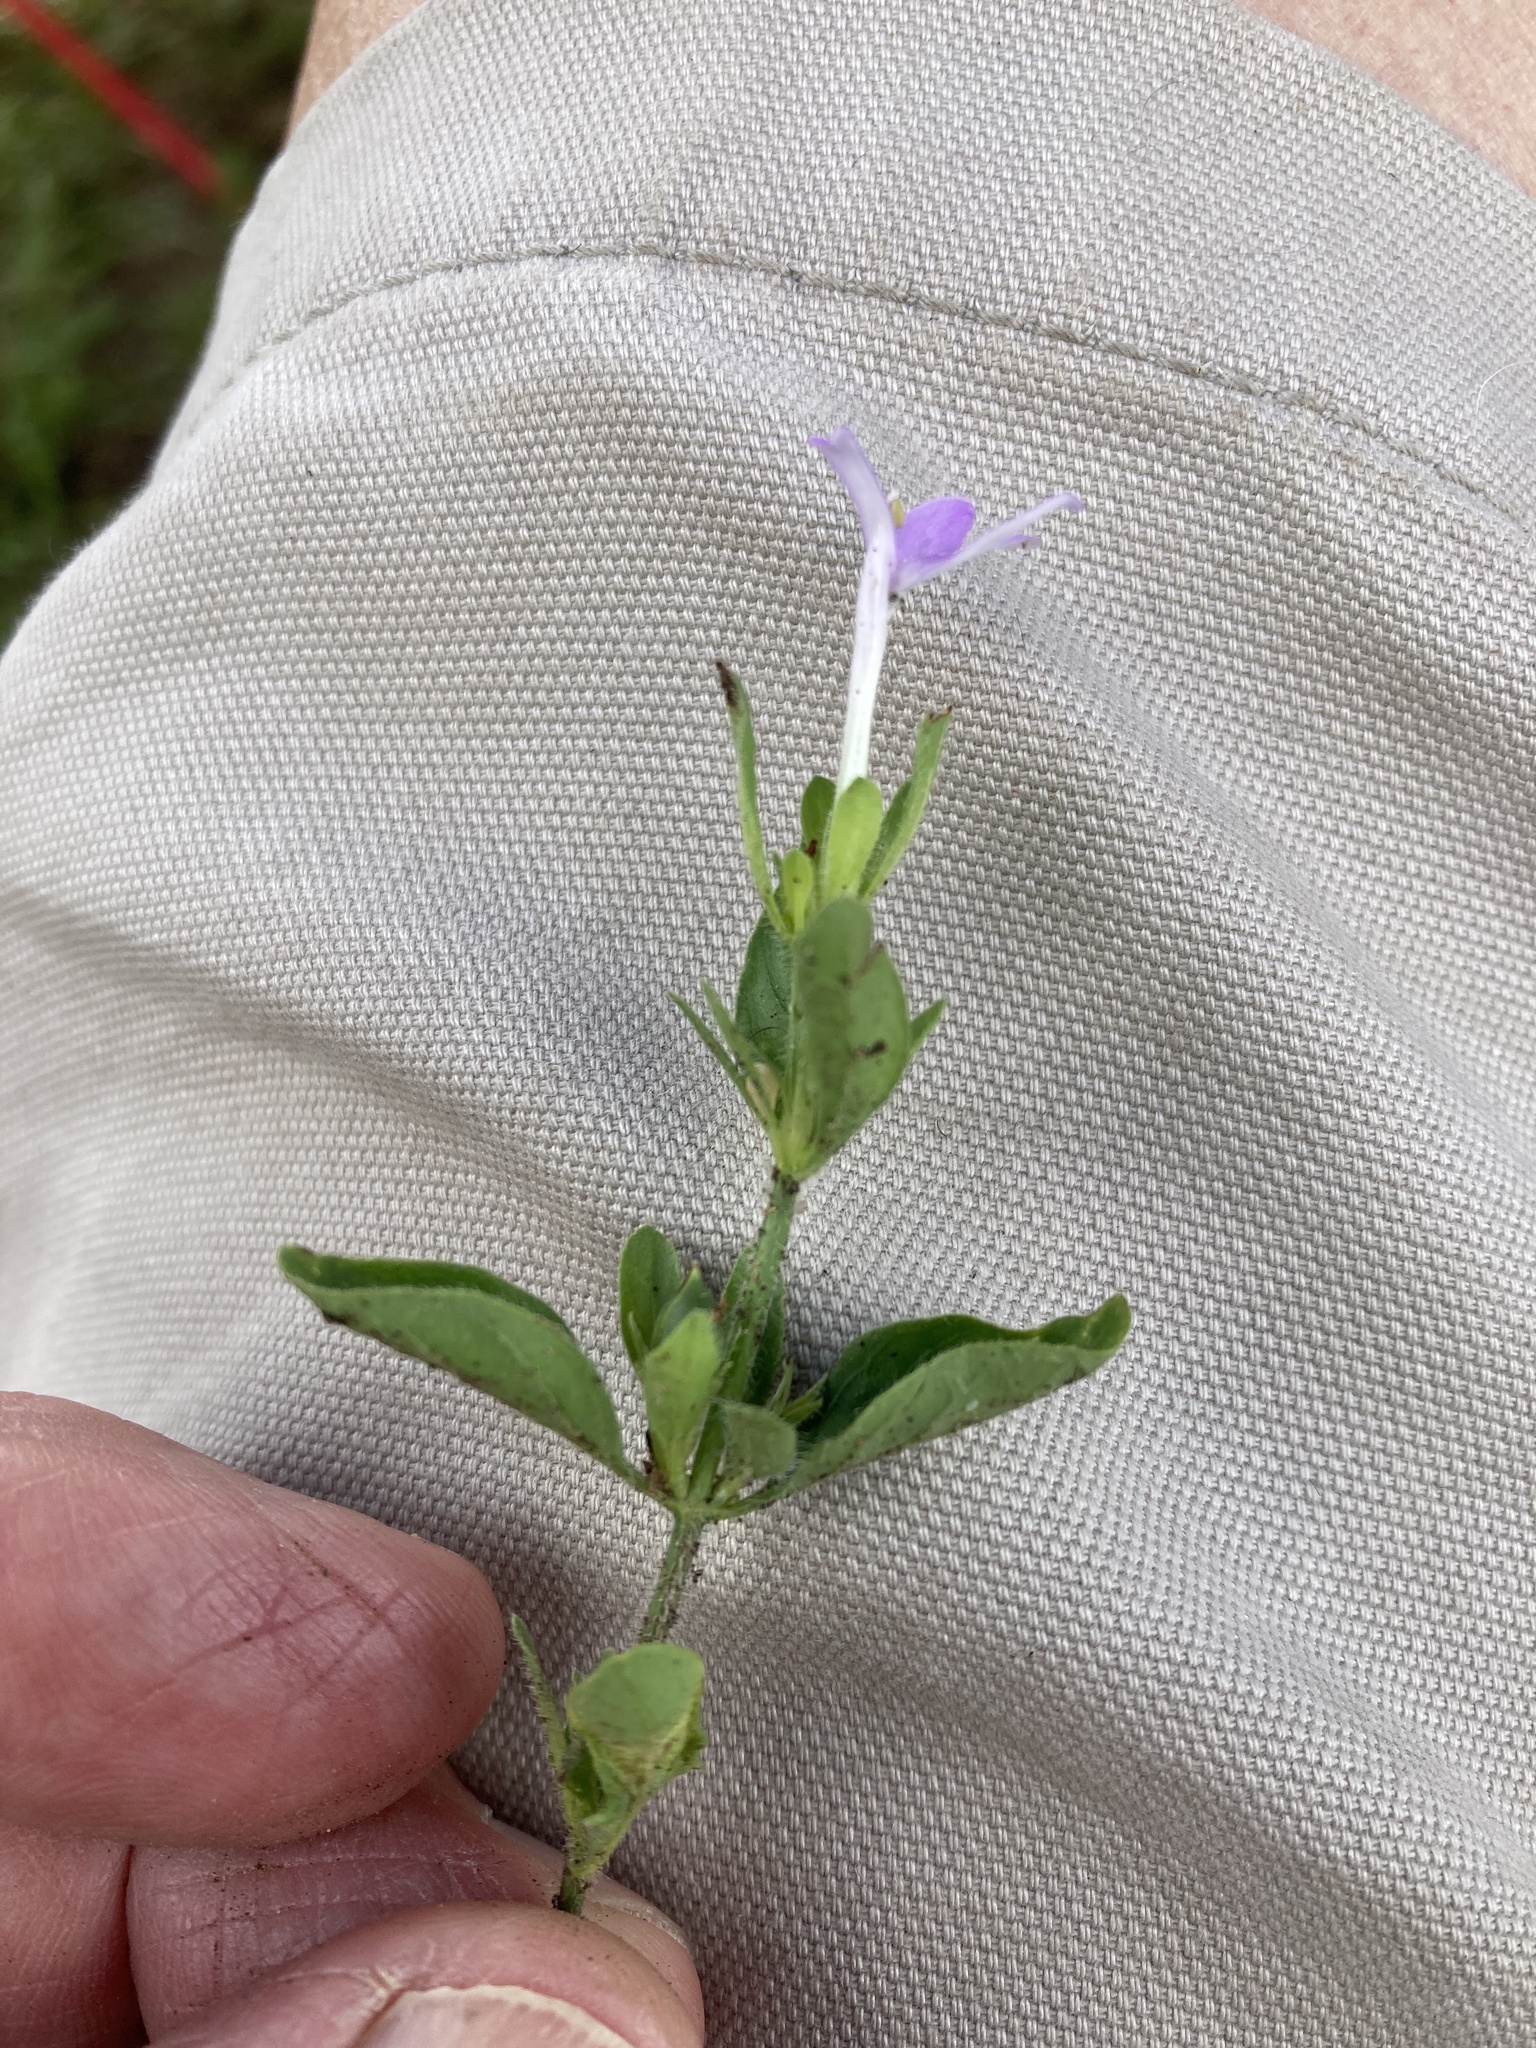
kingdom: Plantae
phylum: Tracheophyta
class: Magnoliopsida
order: Lamiales
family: Acanthaceae
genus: Justicia
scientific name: Justicia pilosella
